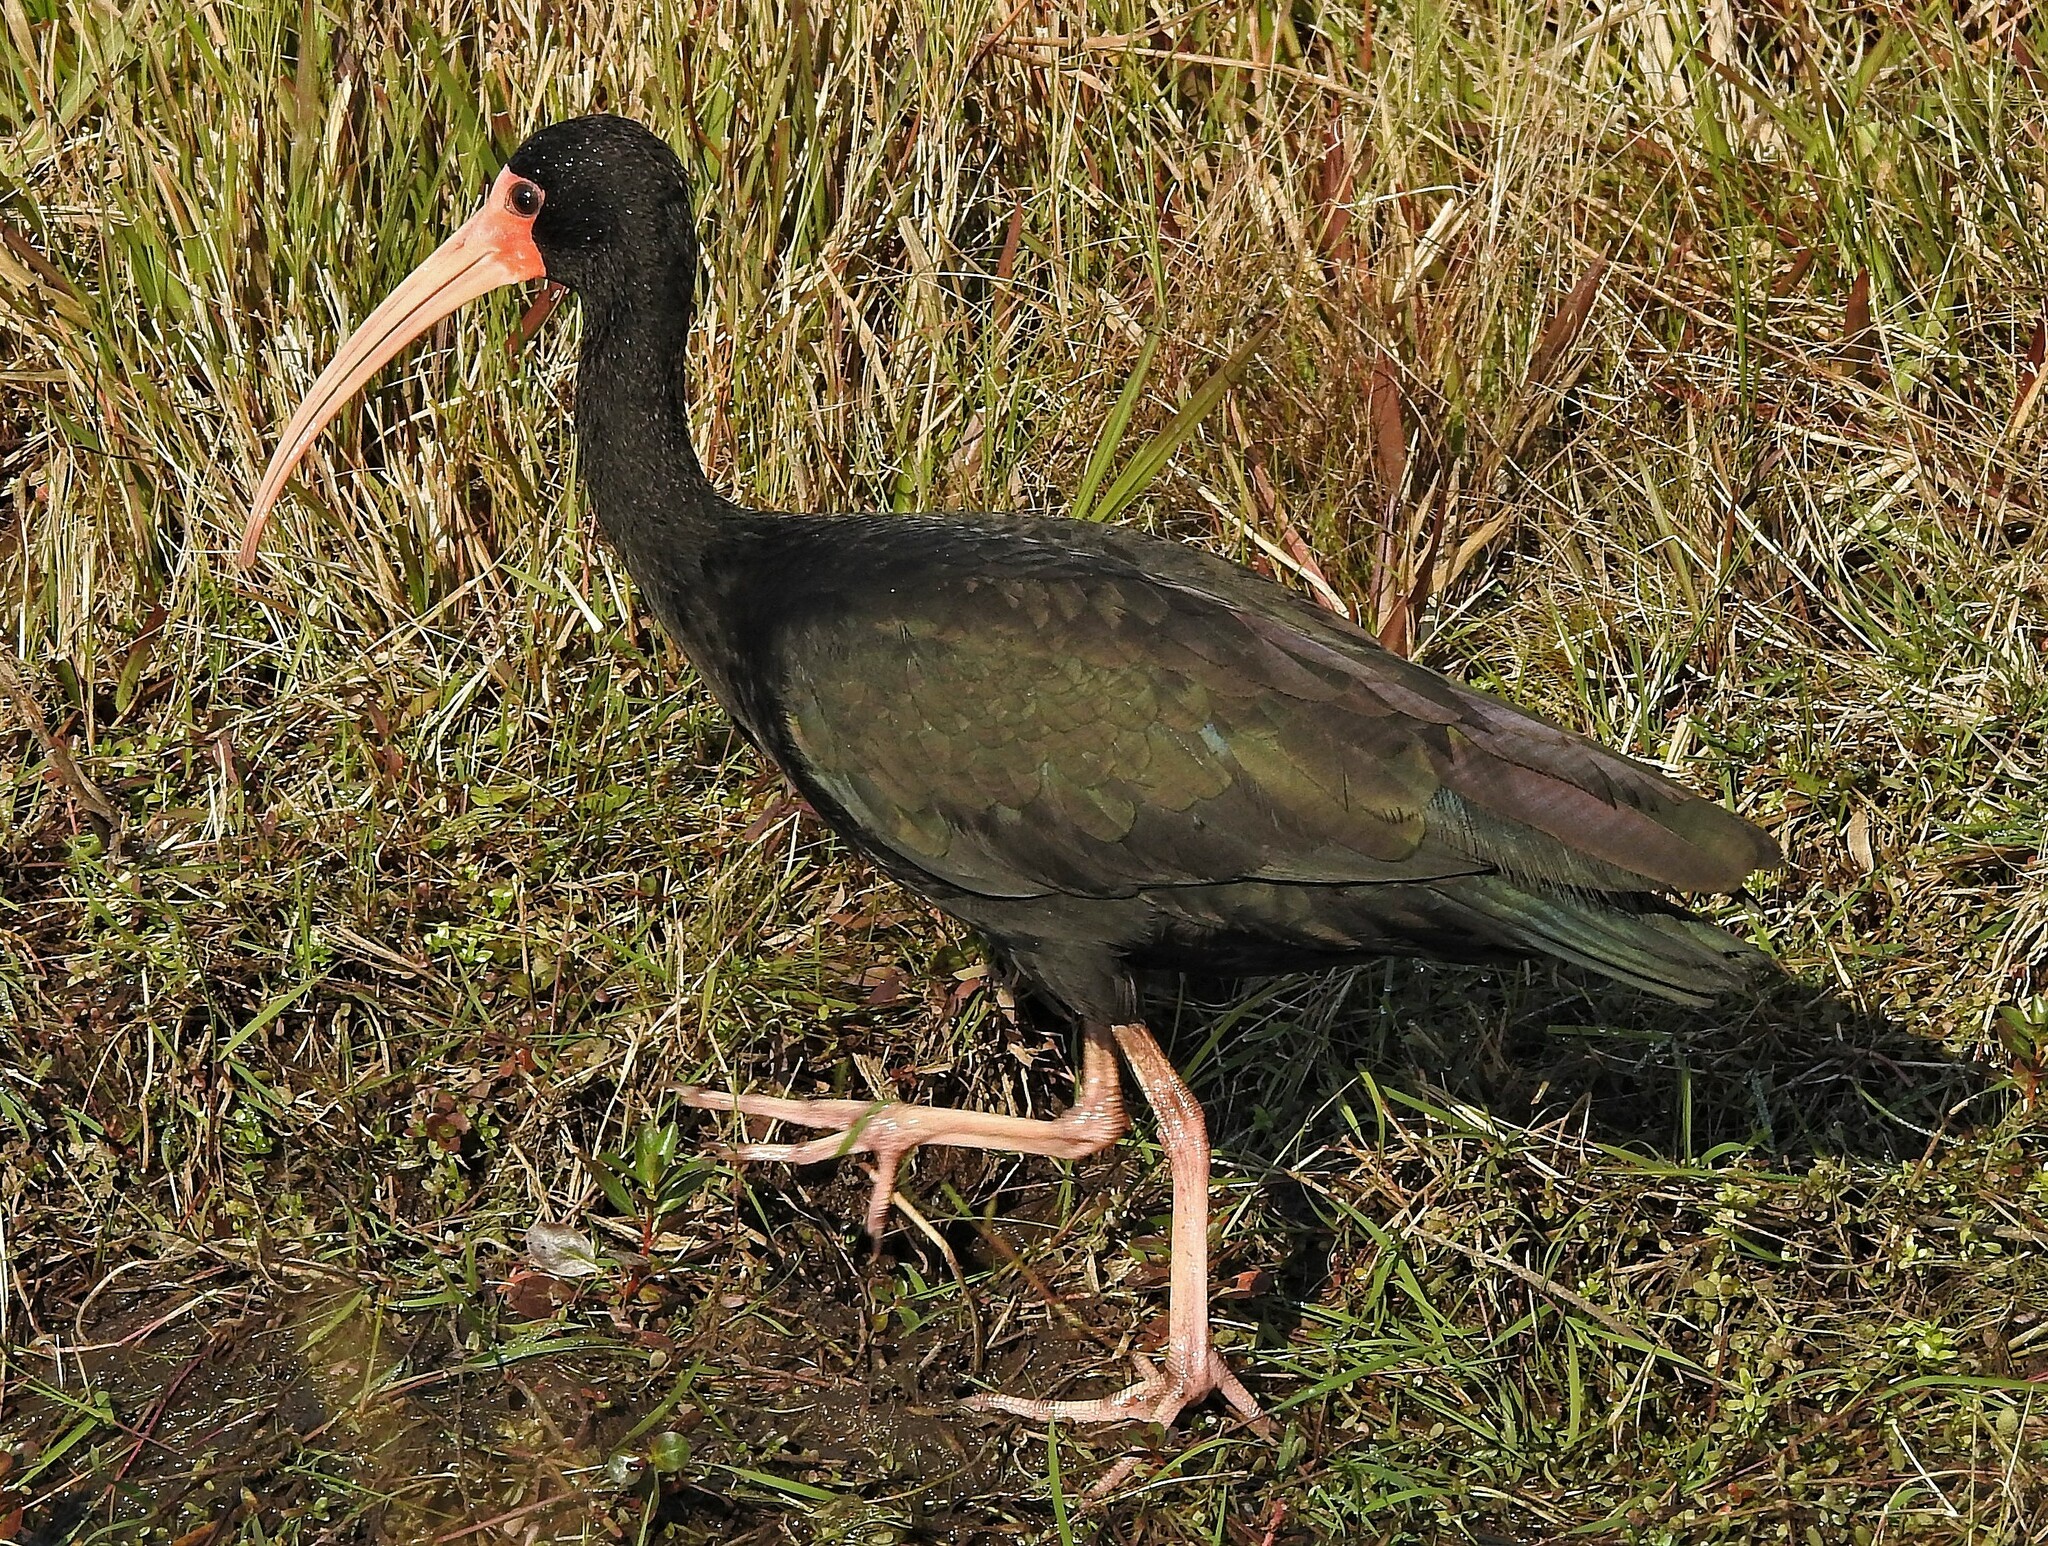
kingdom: Animalia
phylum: Chordata
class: Aves
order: Pelecaniformes
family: Threskiornithidae
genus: Phimosus
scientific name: Phimosus infuscatus
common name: Bare-faced ibis
